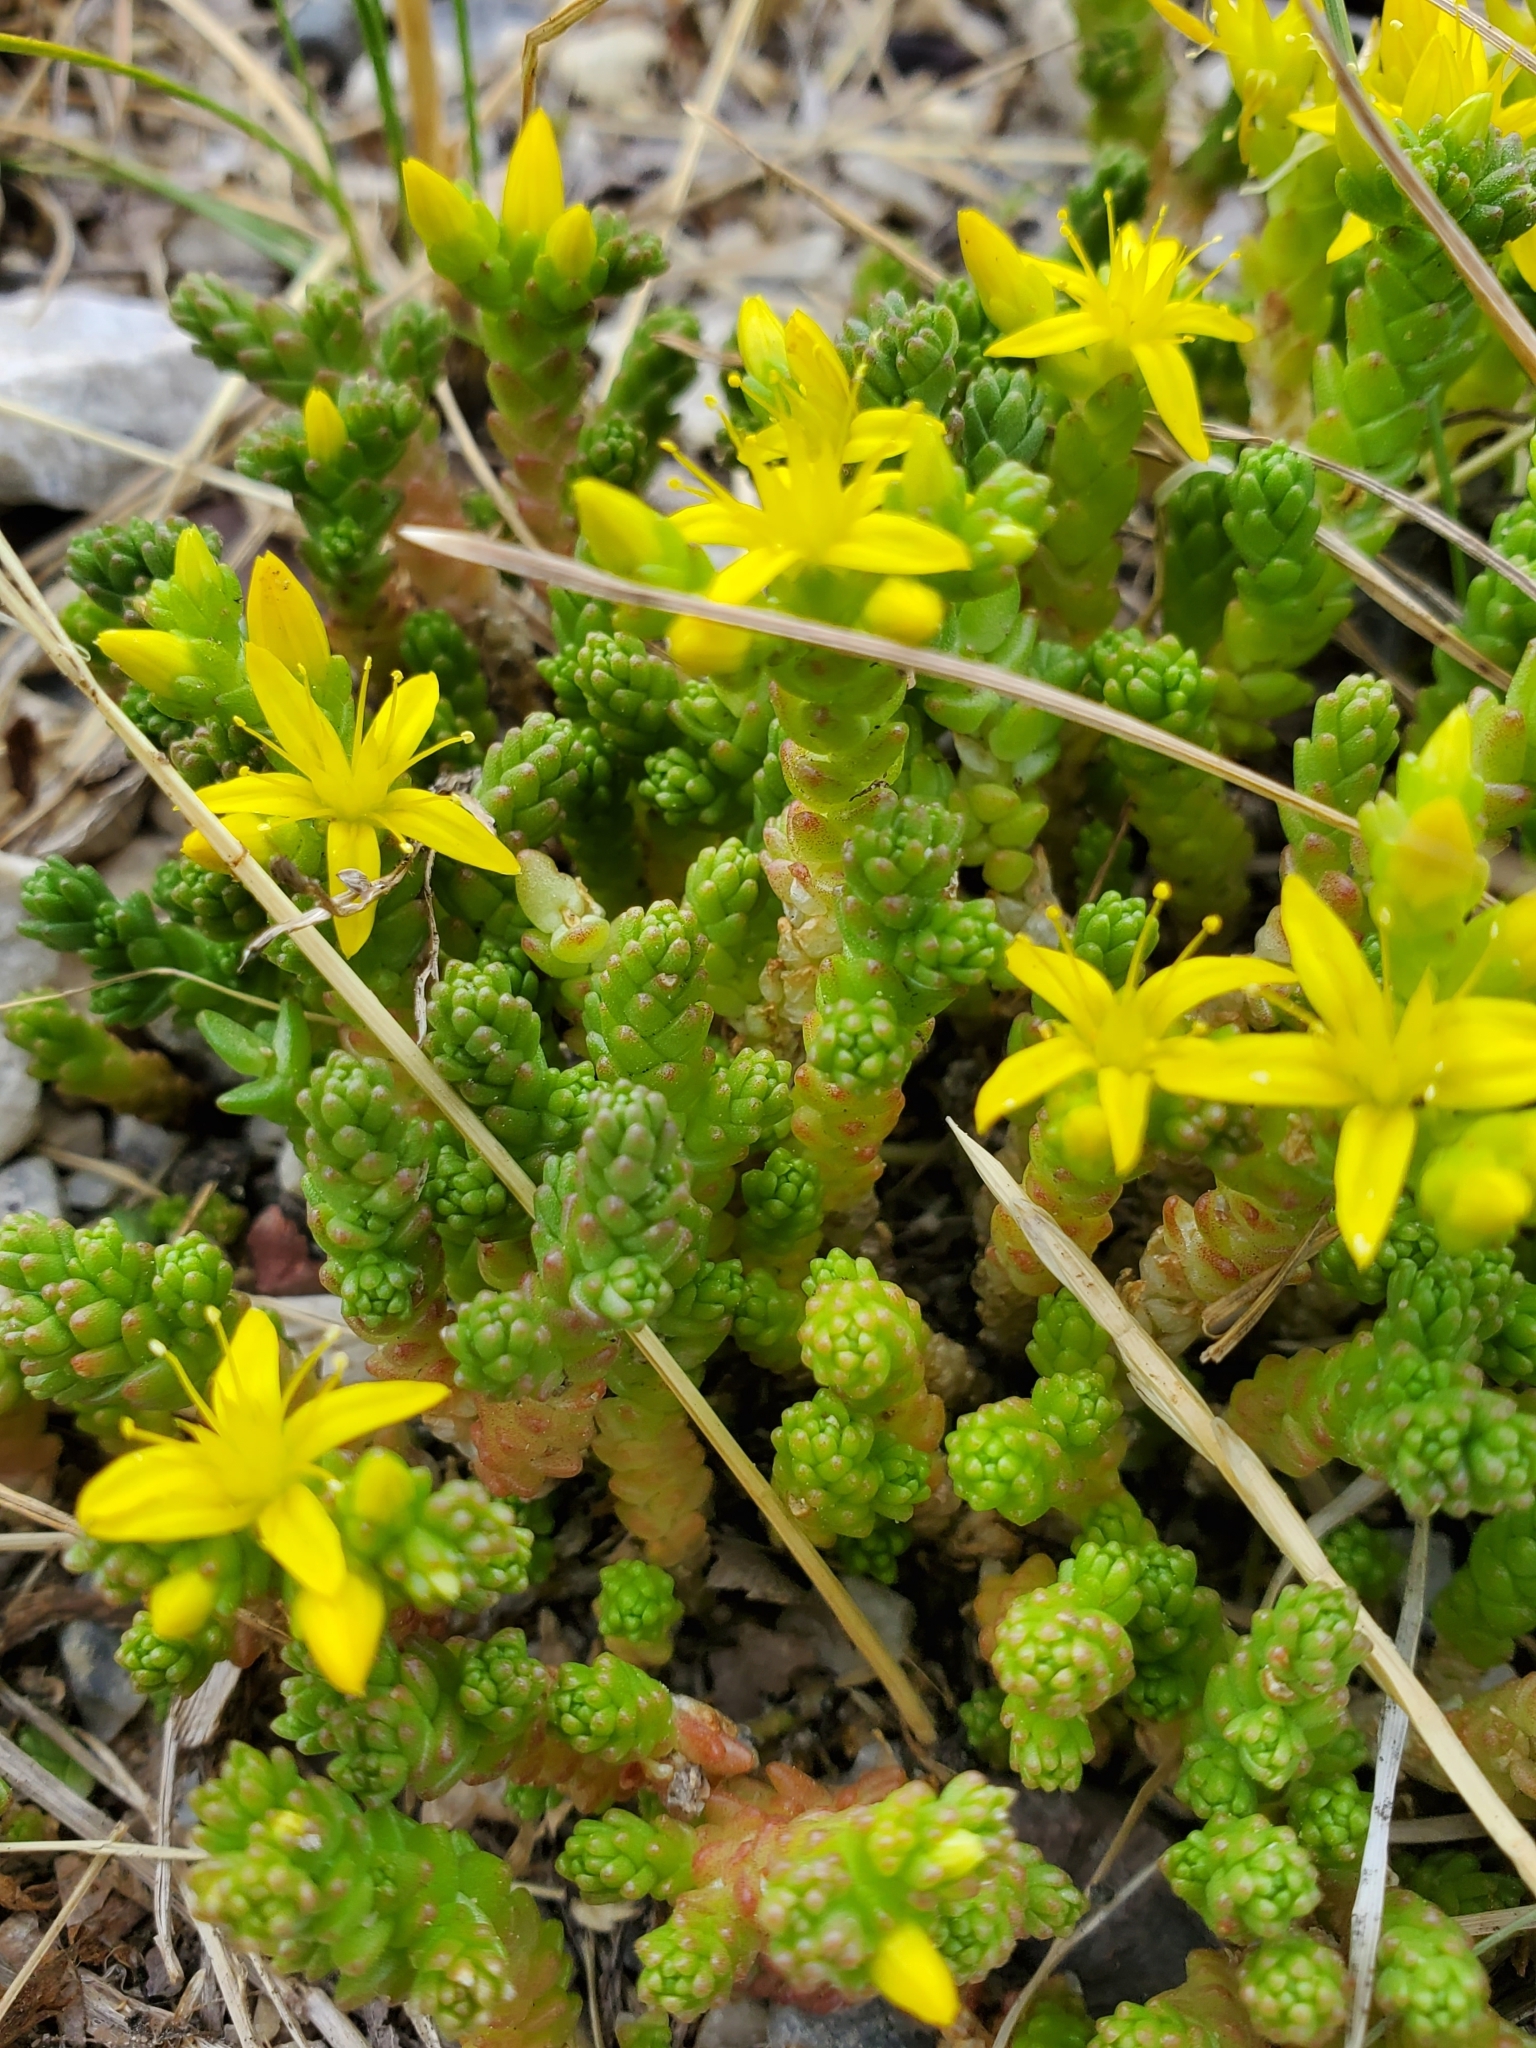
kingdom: Plantae
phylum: Tracheophyta
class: Magnoliopsida
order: Saxifragales
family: Crassulaceae
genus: Sedum
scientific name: Sedum acre
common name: Biting stonecrop
